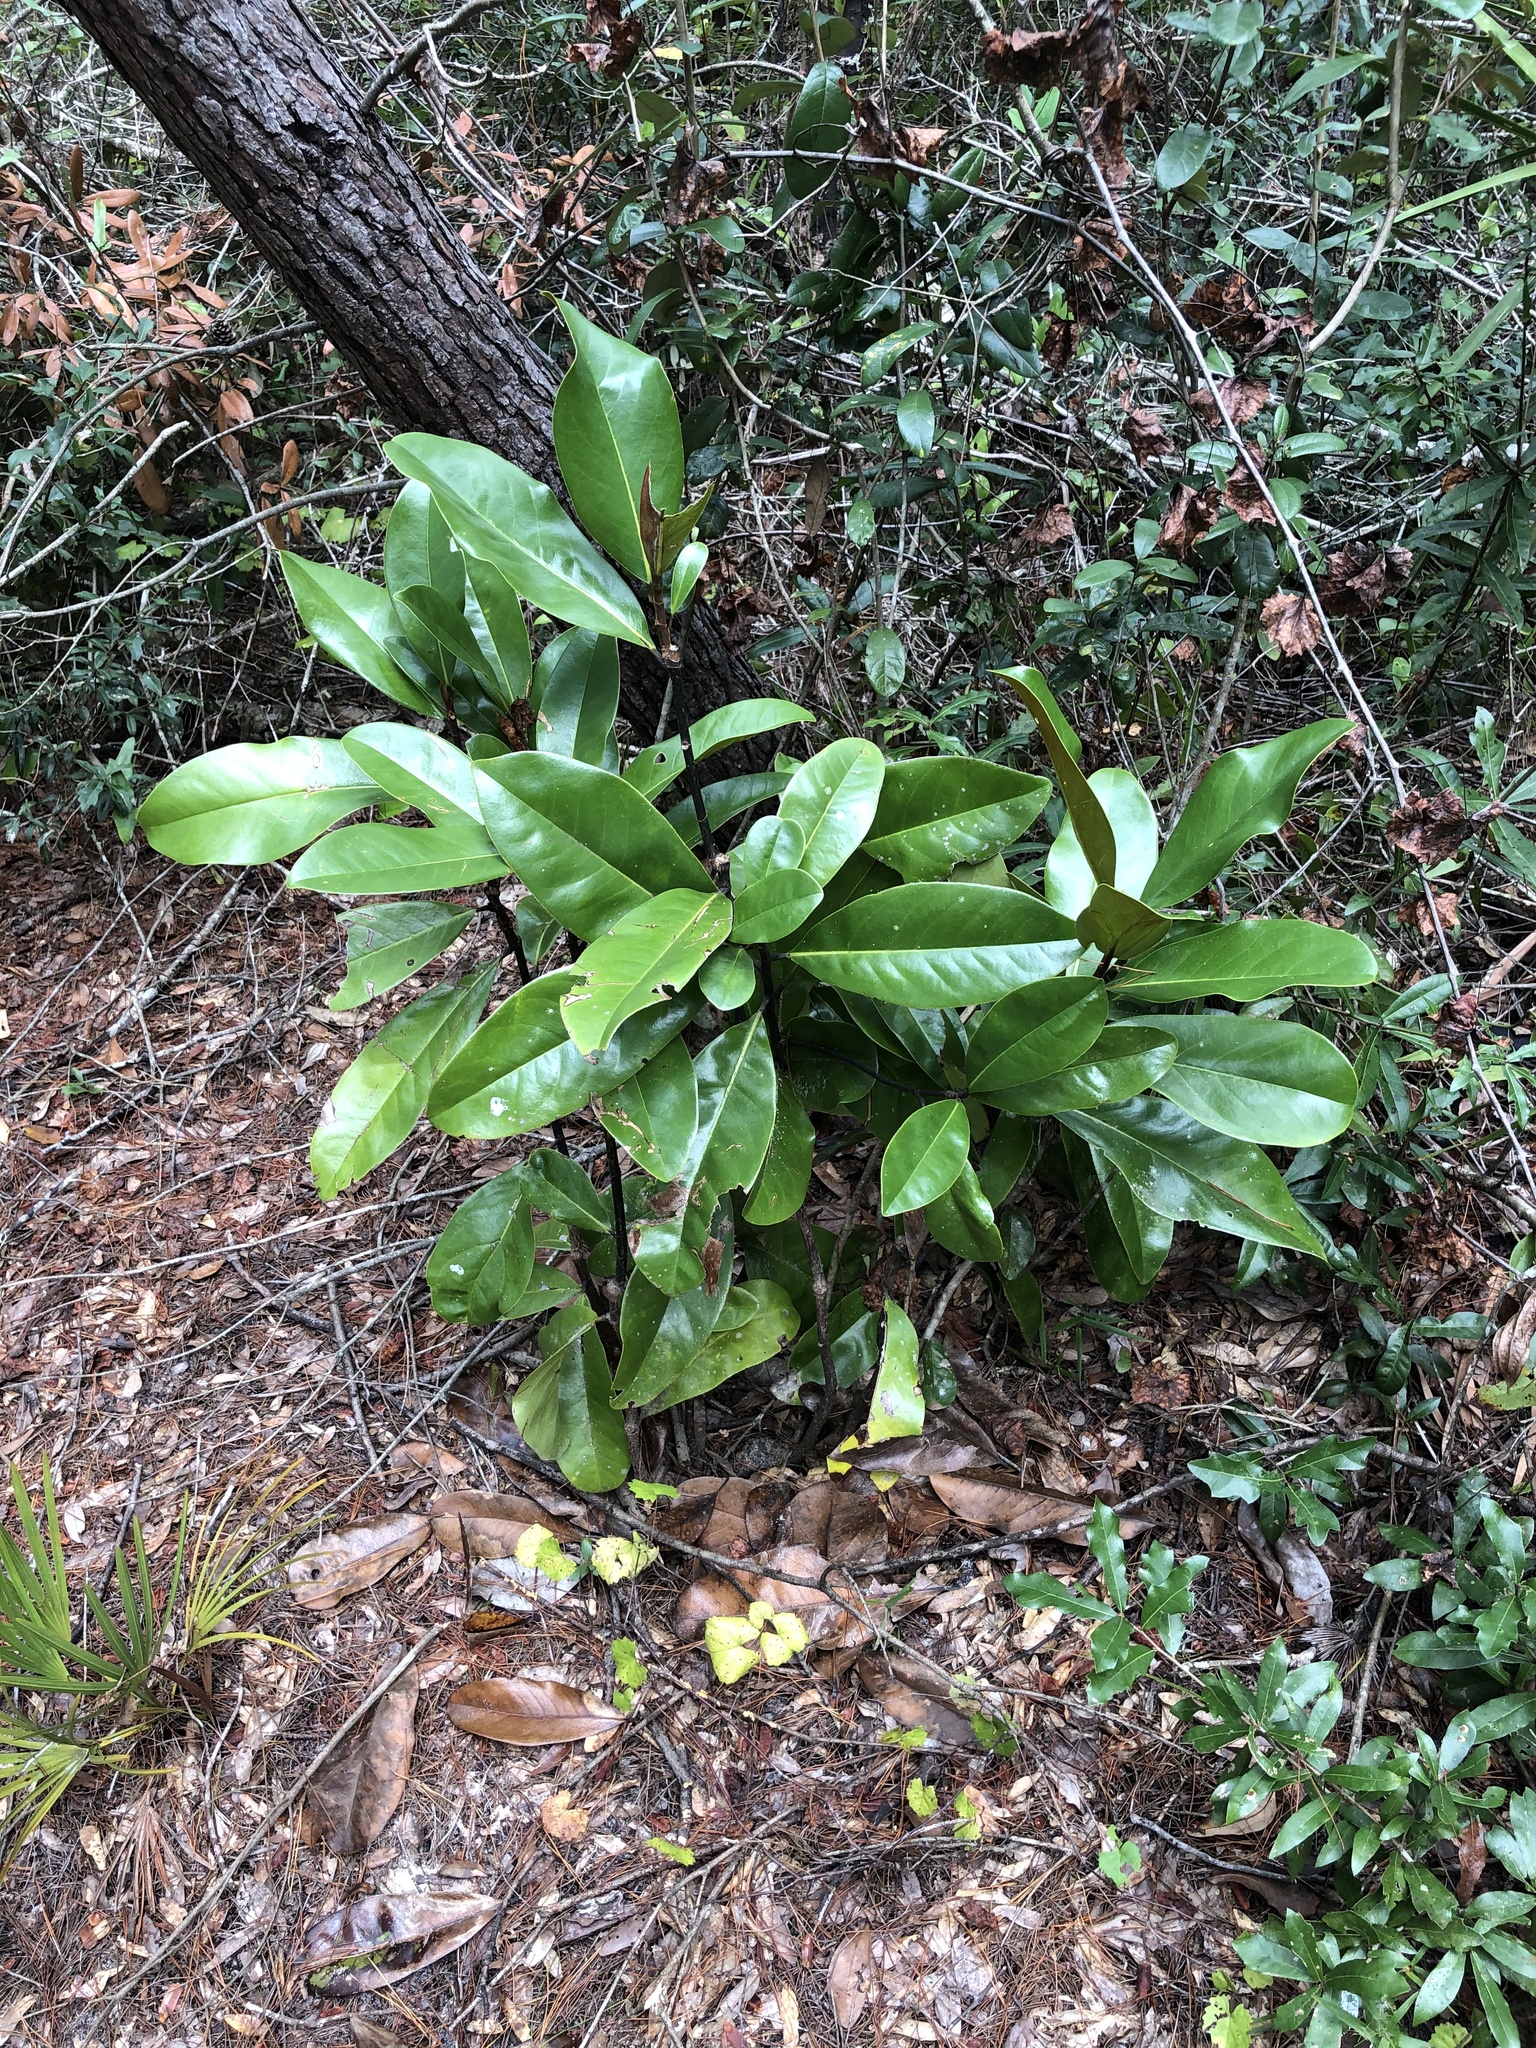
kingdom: Plantae
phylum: Tracheophyta
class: Magnoliopsida
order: Magnoliales
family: Magnoliaceae
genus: Magnolia
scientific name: Magnolia grandiflora
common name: Southern magnolia
